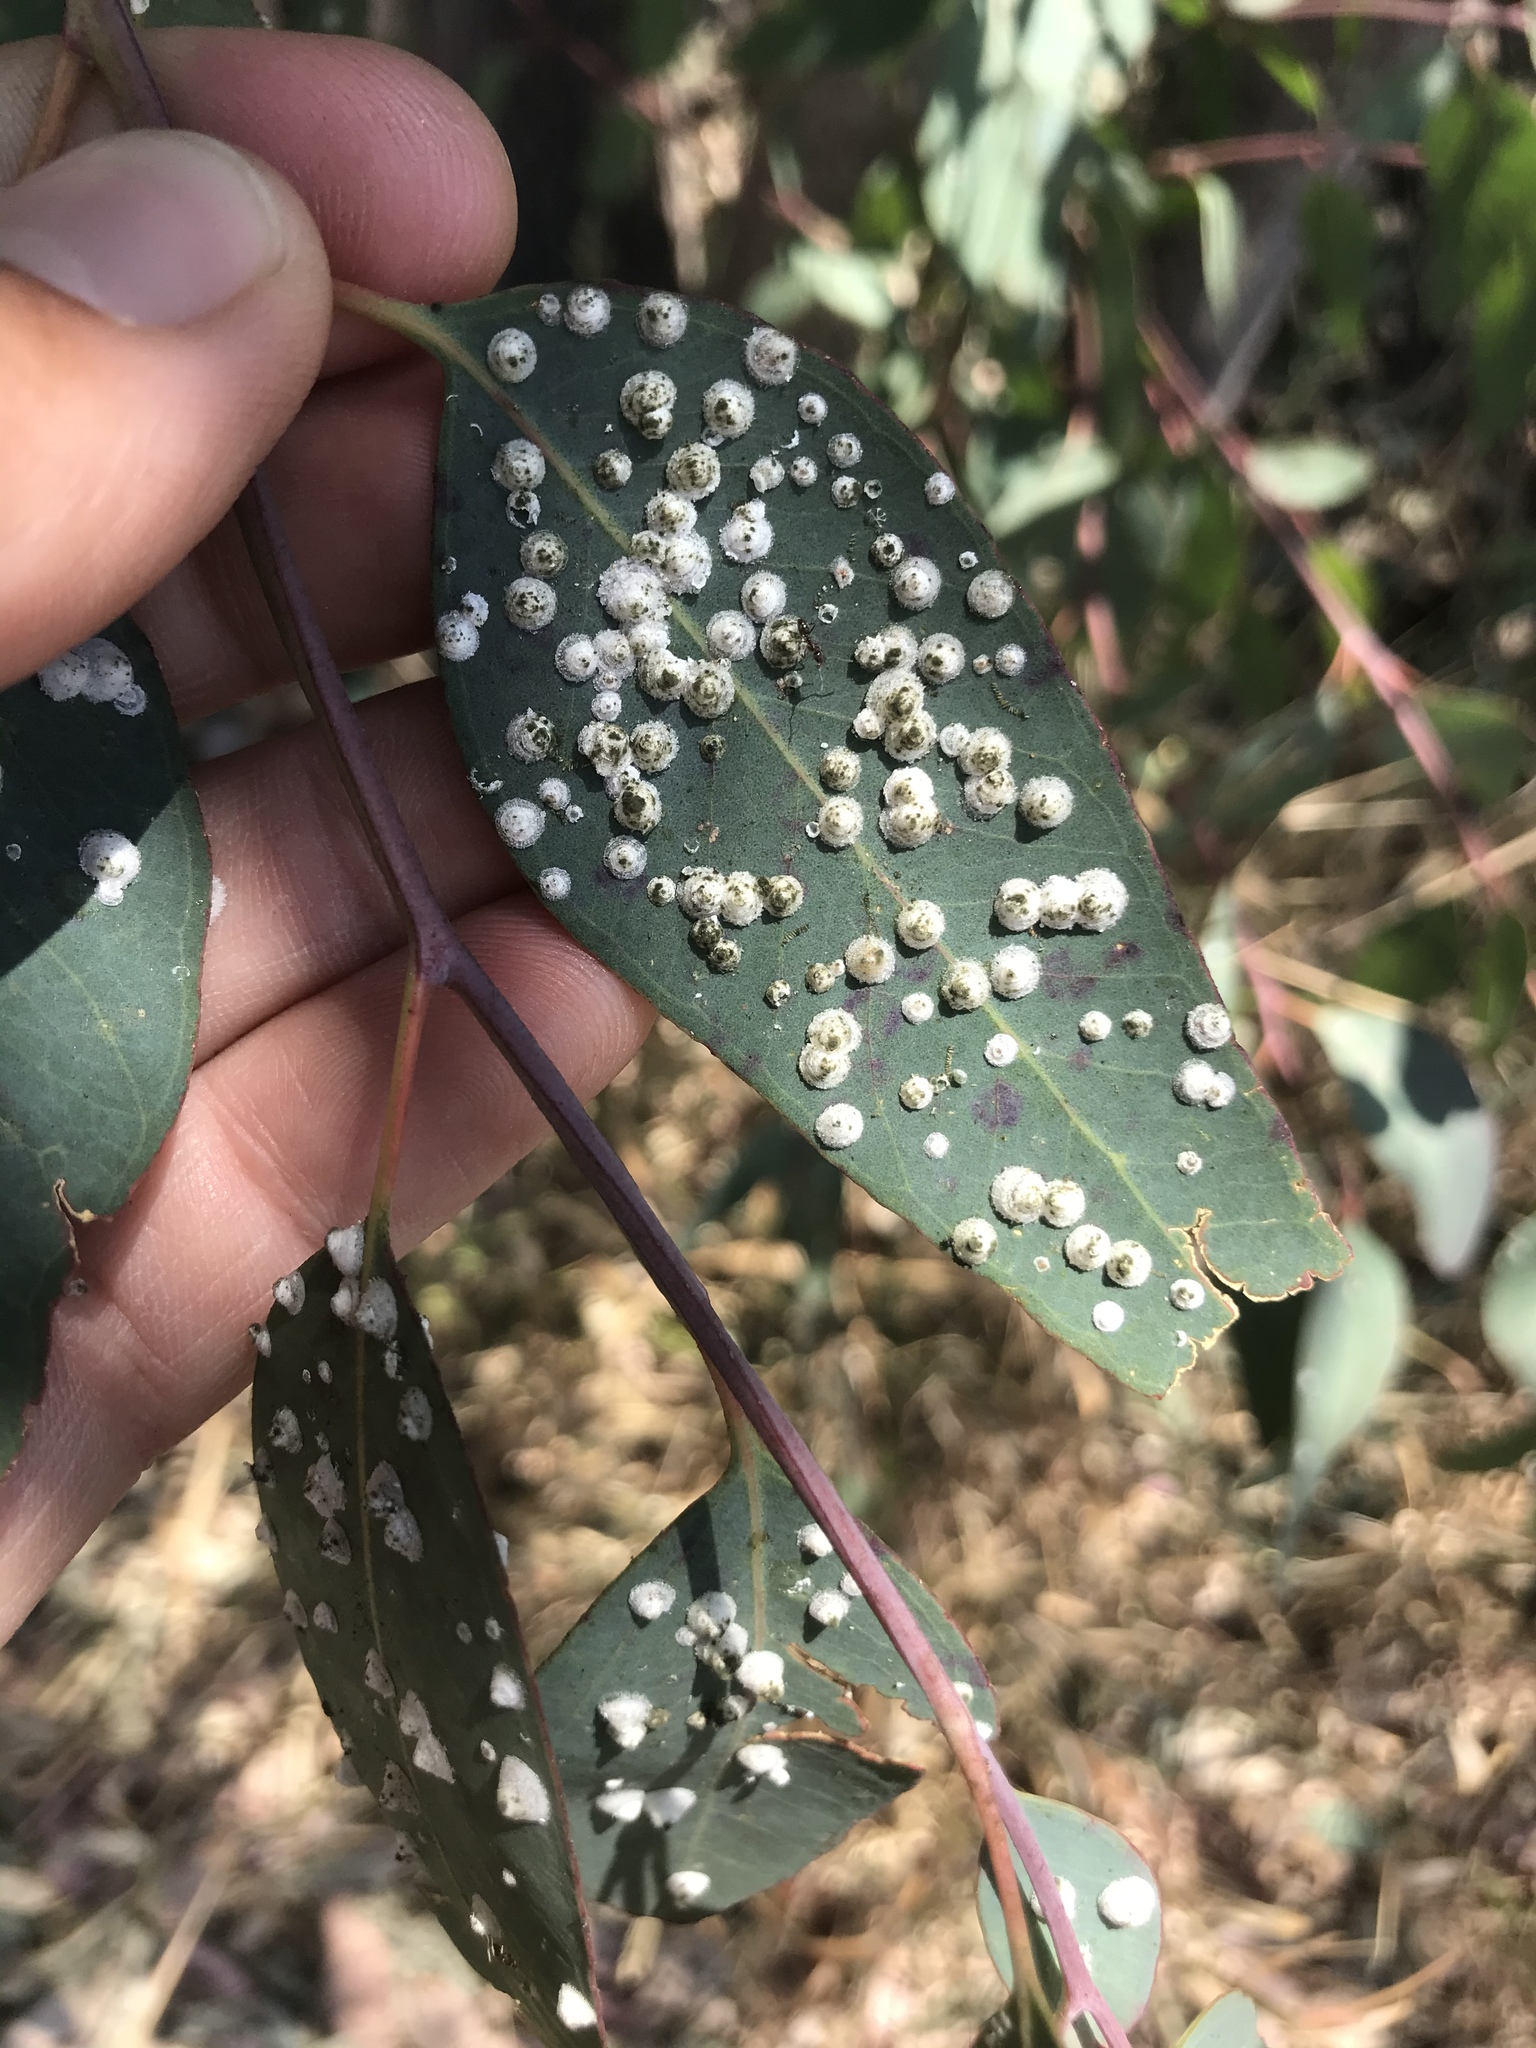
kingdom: Animalia
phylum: Arthropoda
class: Insecta
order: Hemiptera
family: Aphalaridae
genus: Glycaspis
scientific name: Glycaspis brimblecombei
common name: Red gum lerp psyllid
